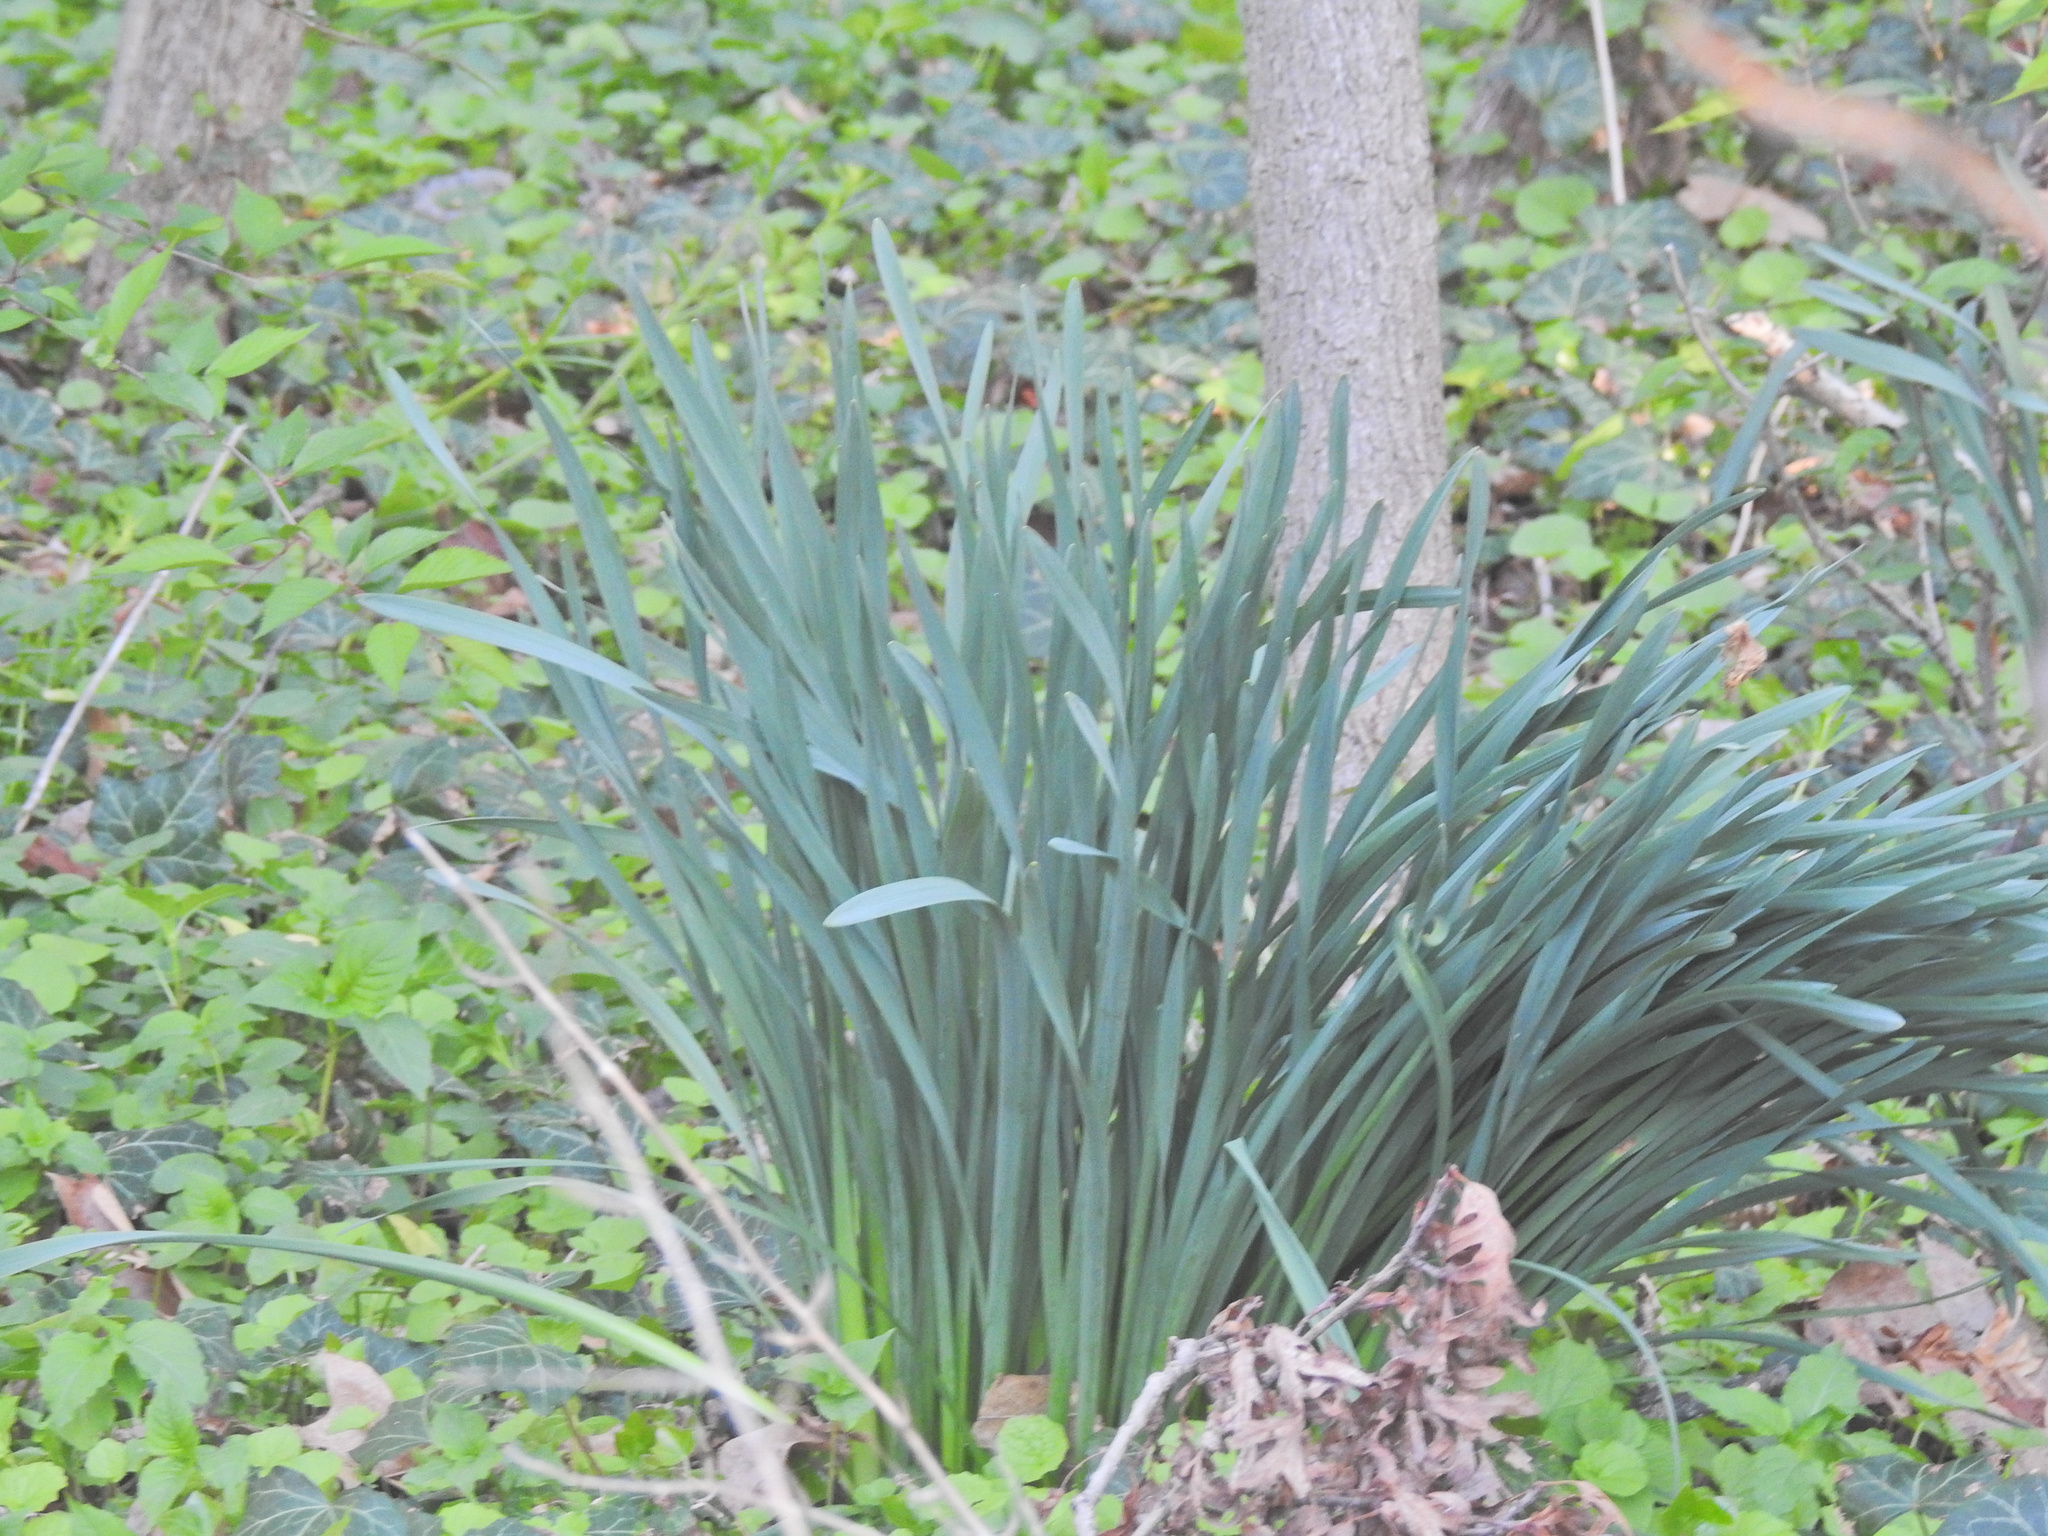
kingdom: Plantae
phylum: Tracheophyta
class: Liliopsida
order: Asparagales
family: Amaryllidaceae
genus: Narcissus
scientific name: Narcissus
